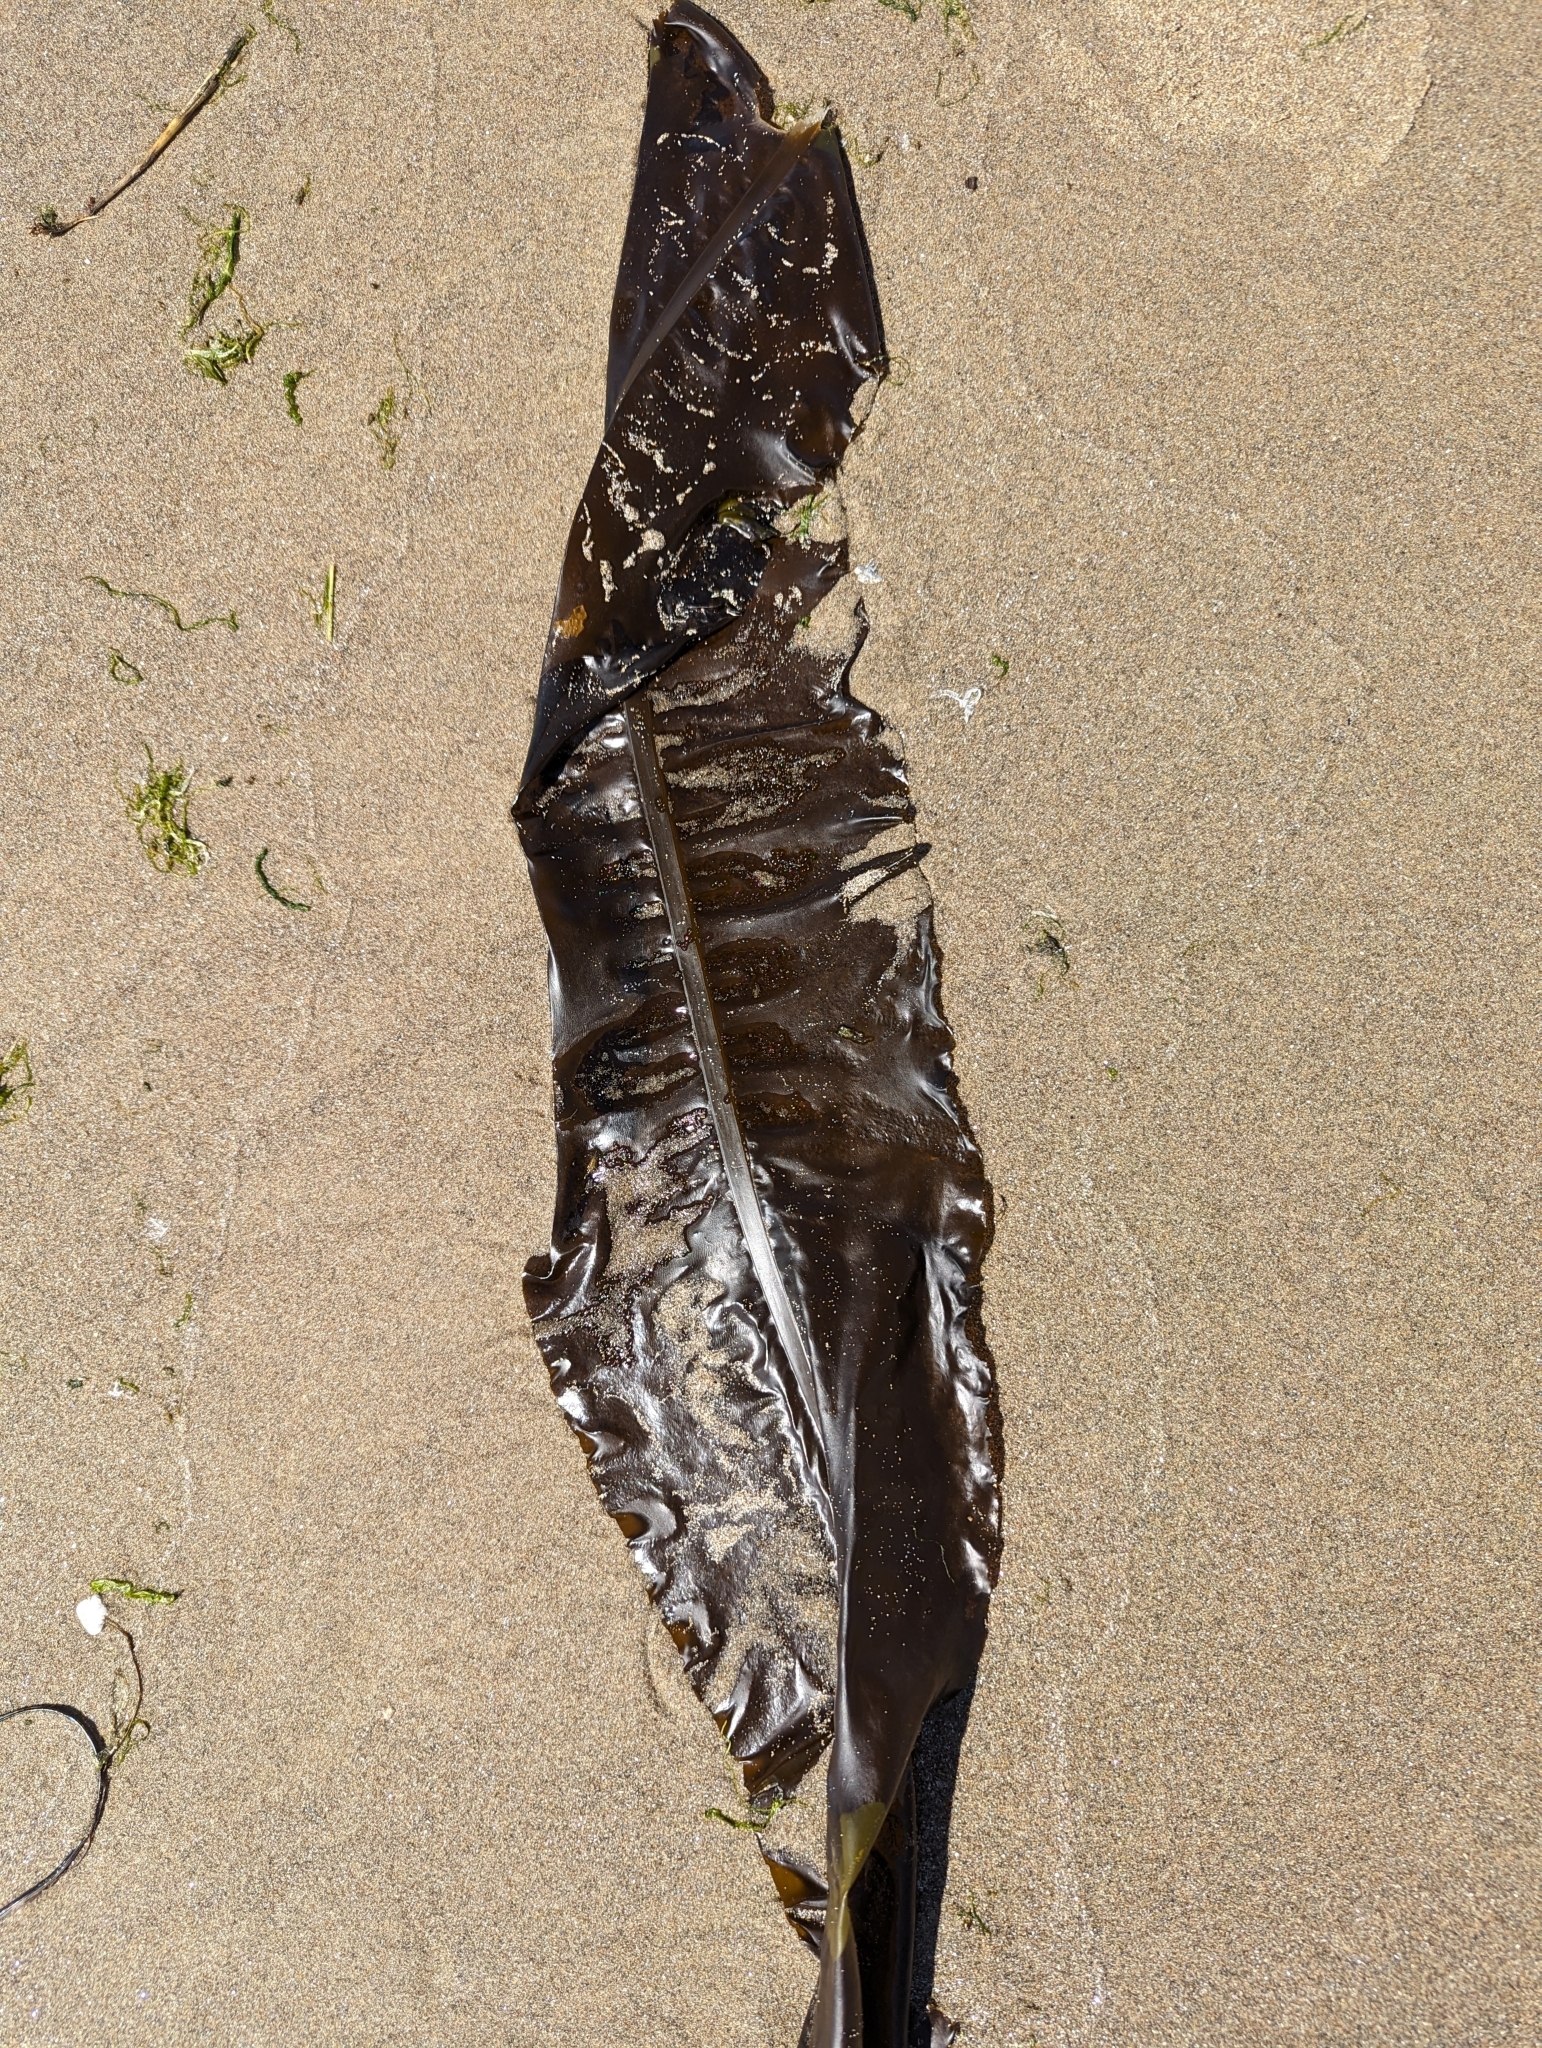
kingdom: Chromista
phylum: Ochrophyta
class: Phaeophyceae
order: Laminariales
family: Alariaceae
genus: Alaria
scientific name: Alaria marginata
